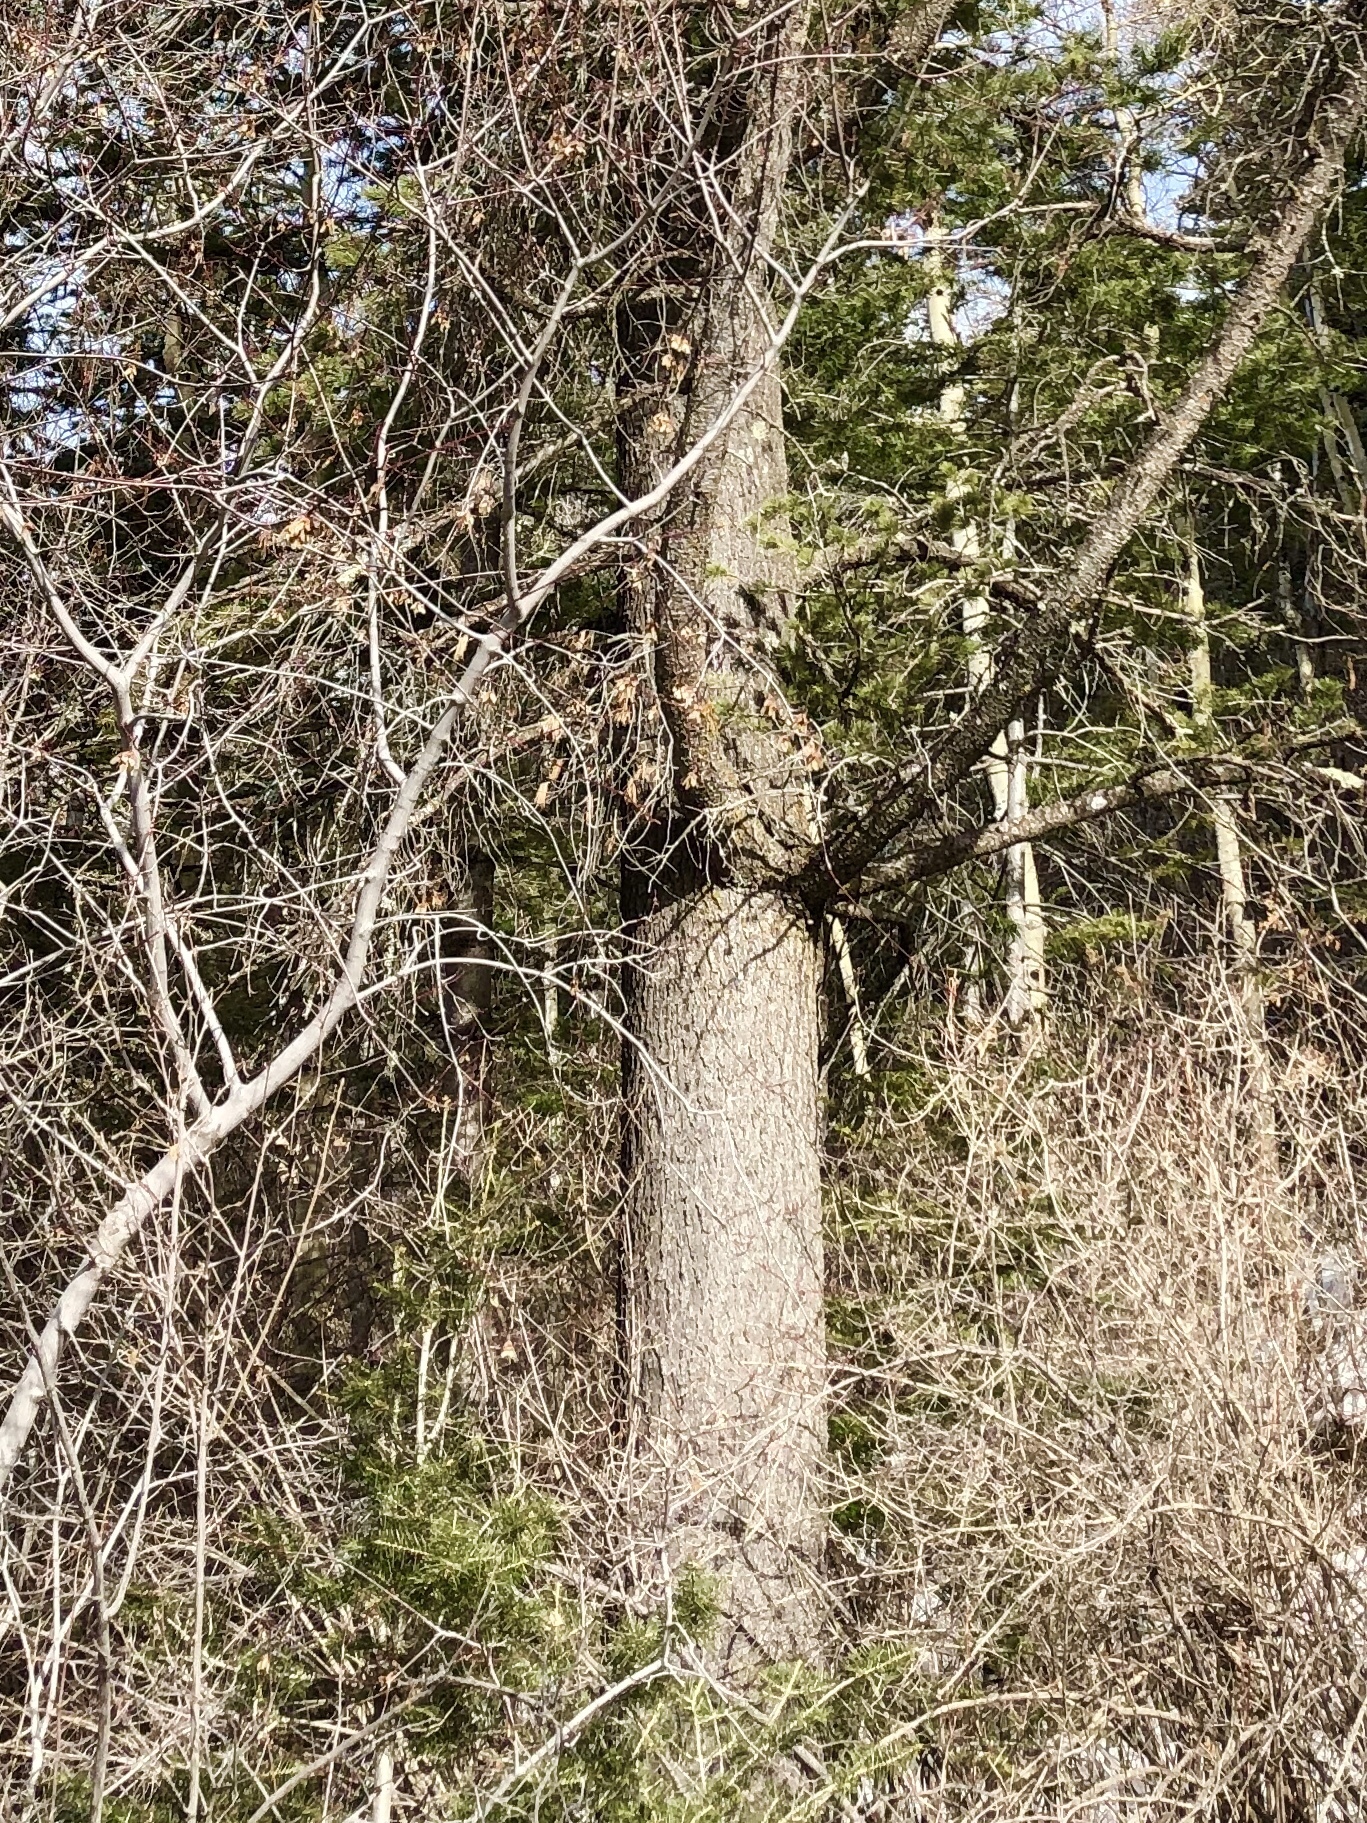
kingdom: Plantae
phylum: Tracheophyta
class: Pinopsida
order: Pinales
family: Pinaceae
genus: Pinus
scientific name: Pinus strobiformis
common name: Southwestern white pine
